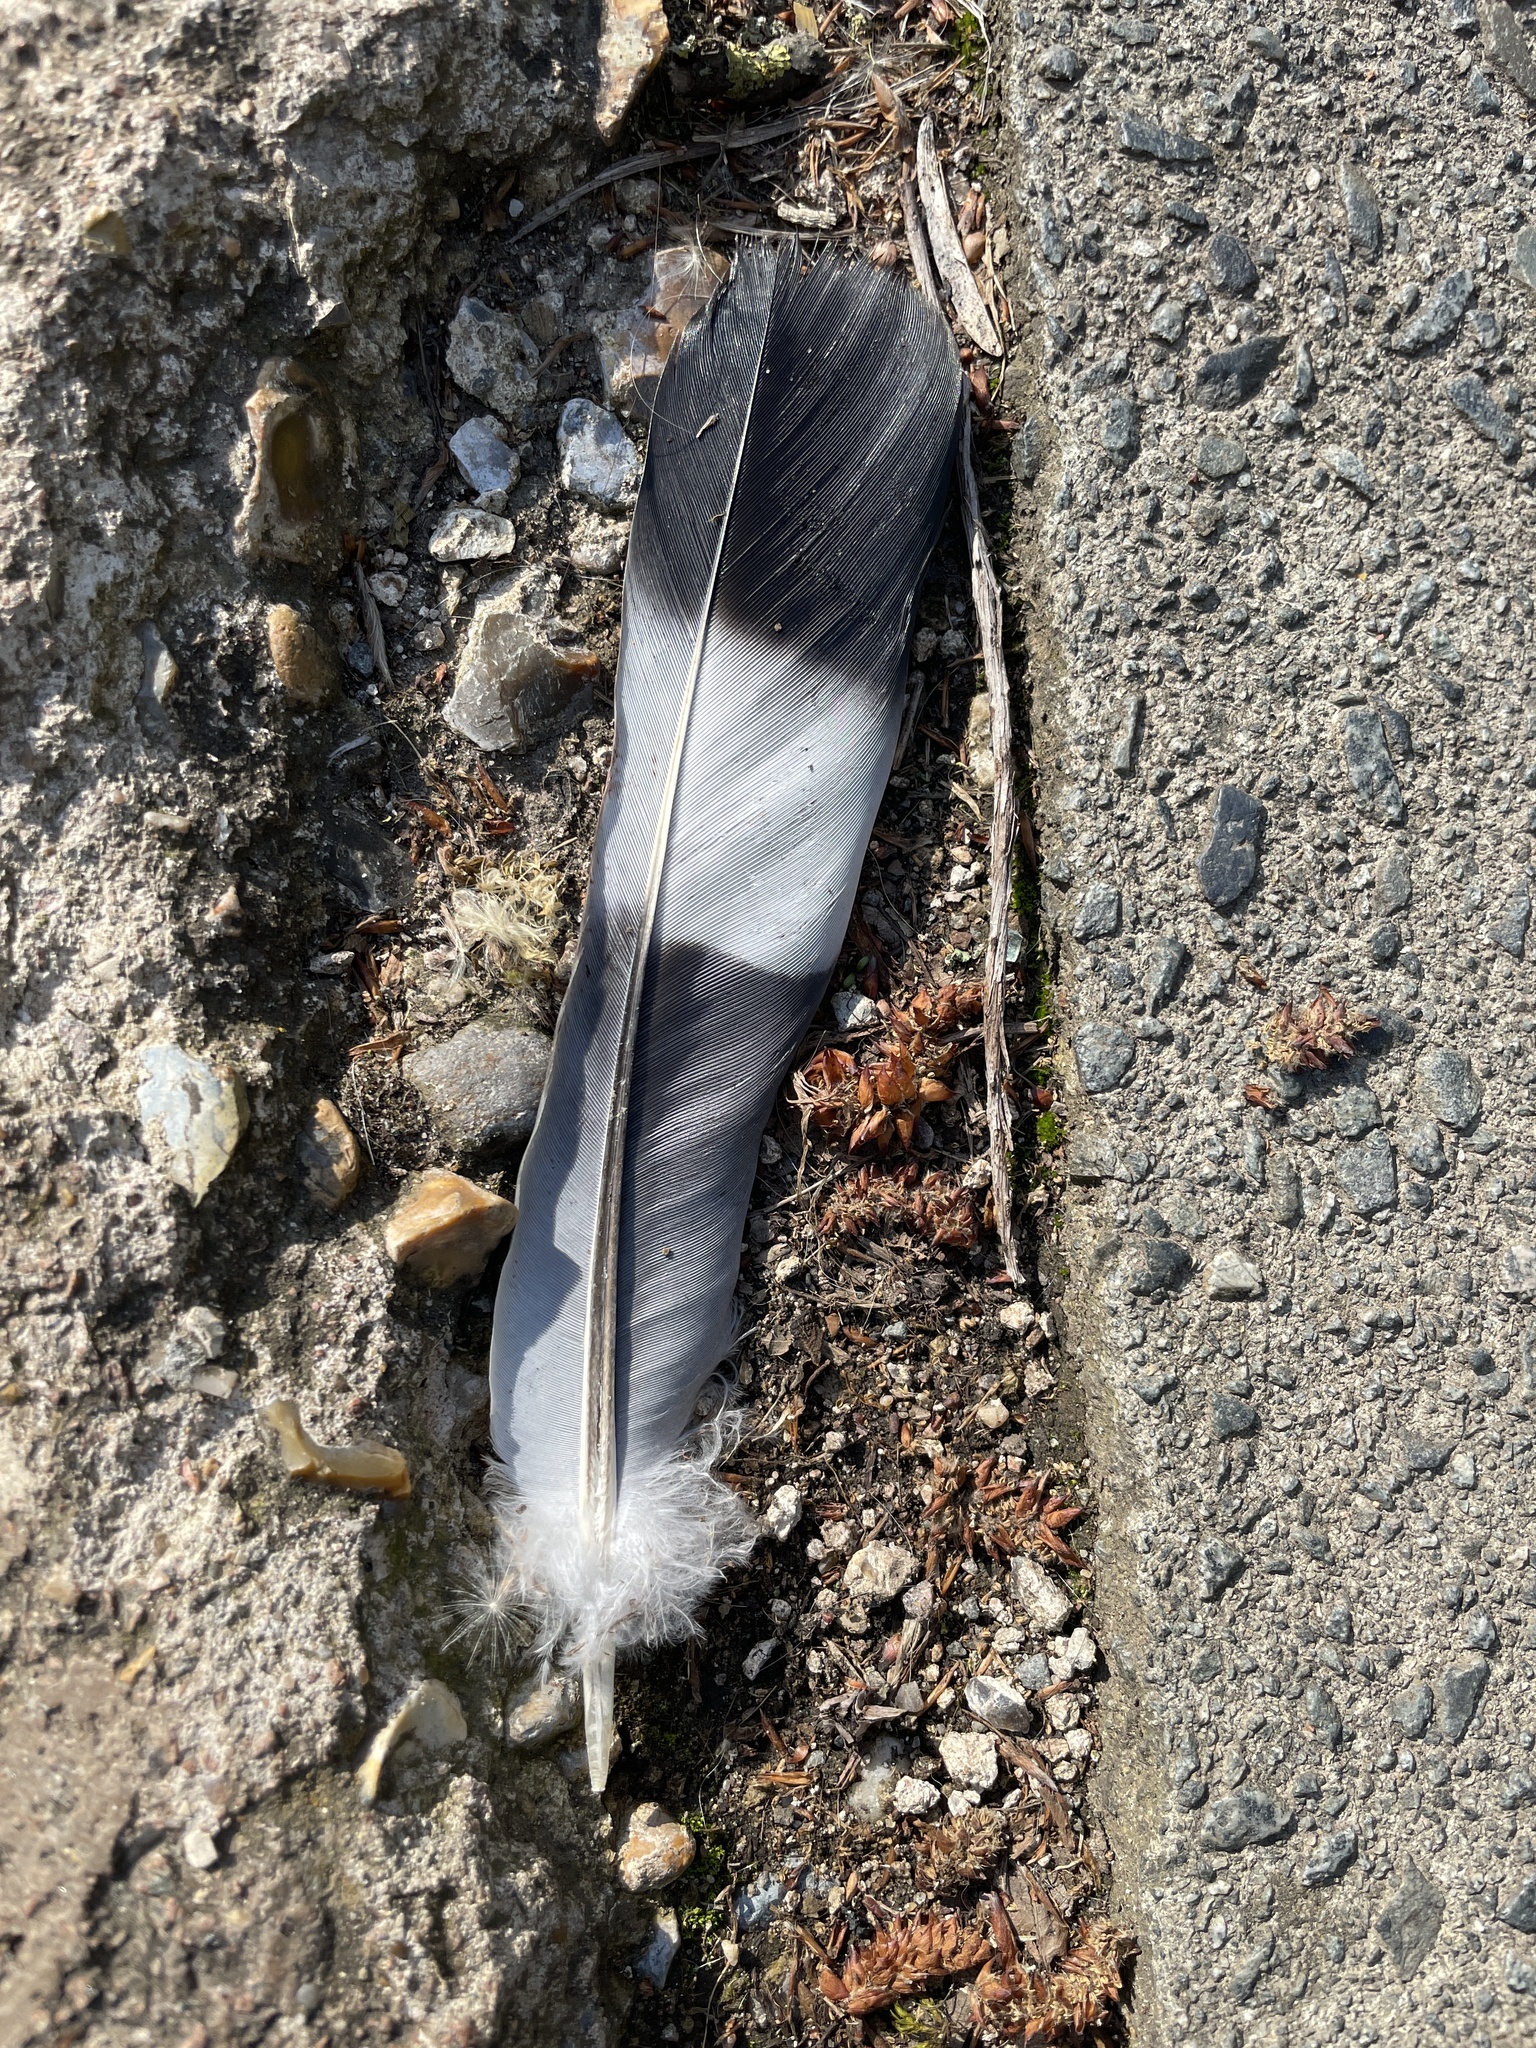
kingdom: Animalia
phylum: Chordata
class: Aves
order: Columbiformes
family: Columbidae
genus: Columba
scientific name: Columba palumbus
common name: Common wood pigeon
